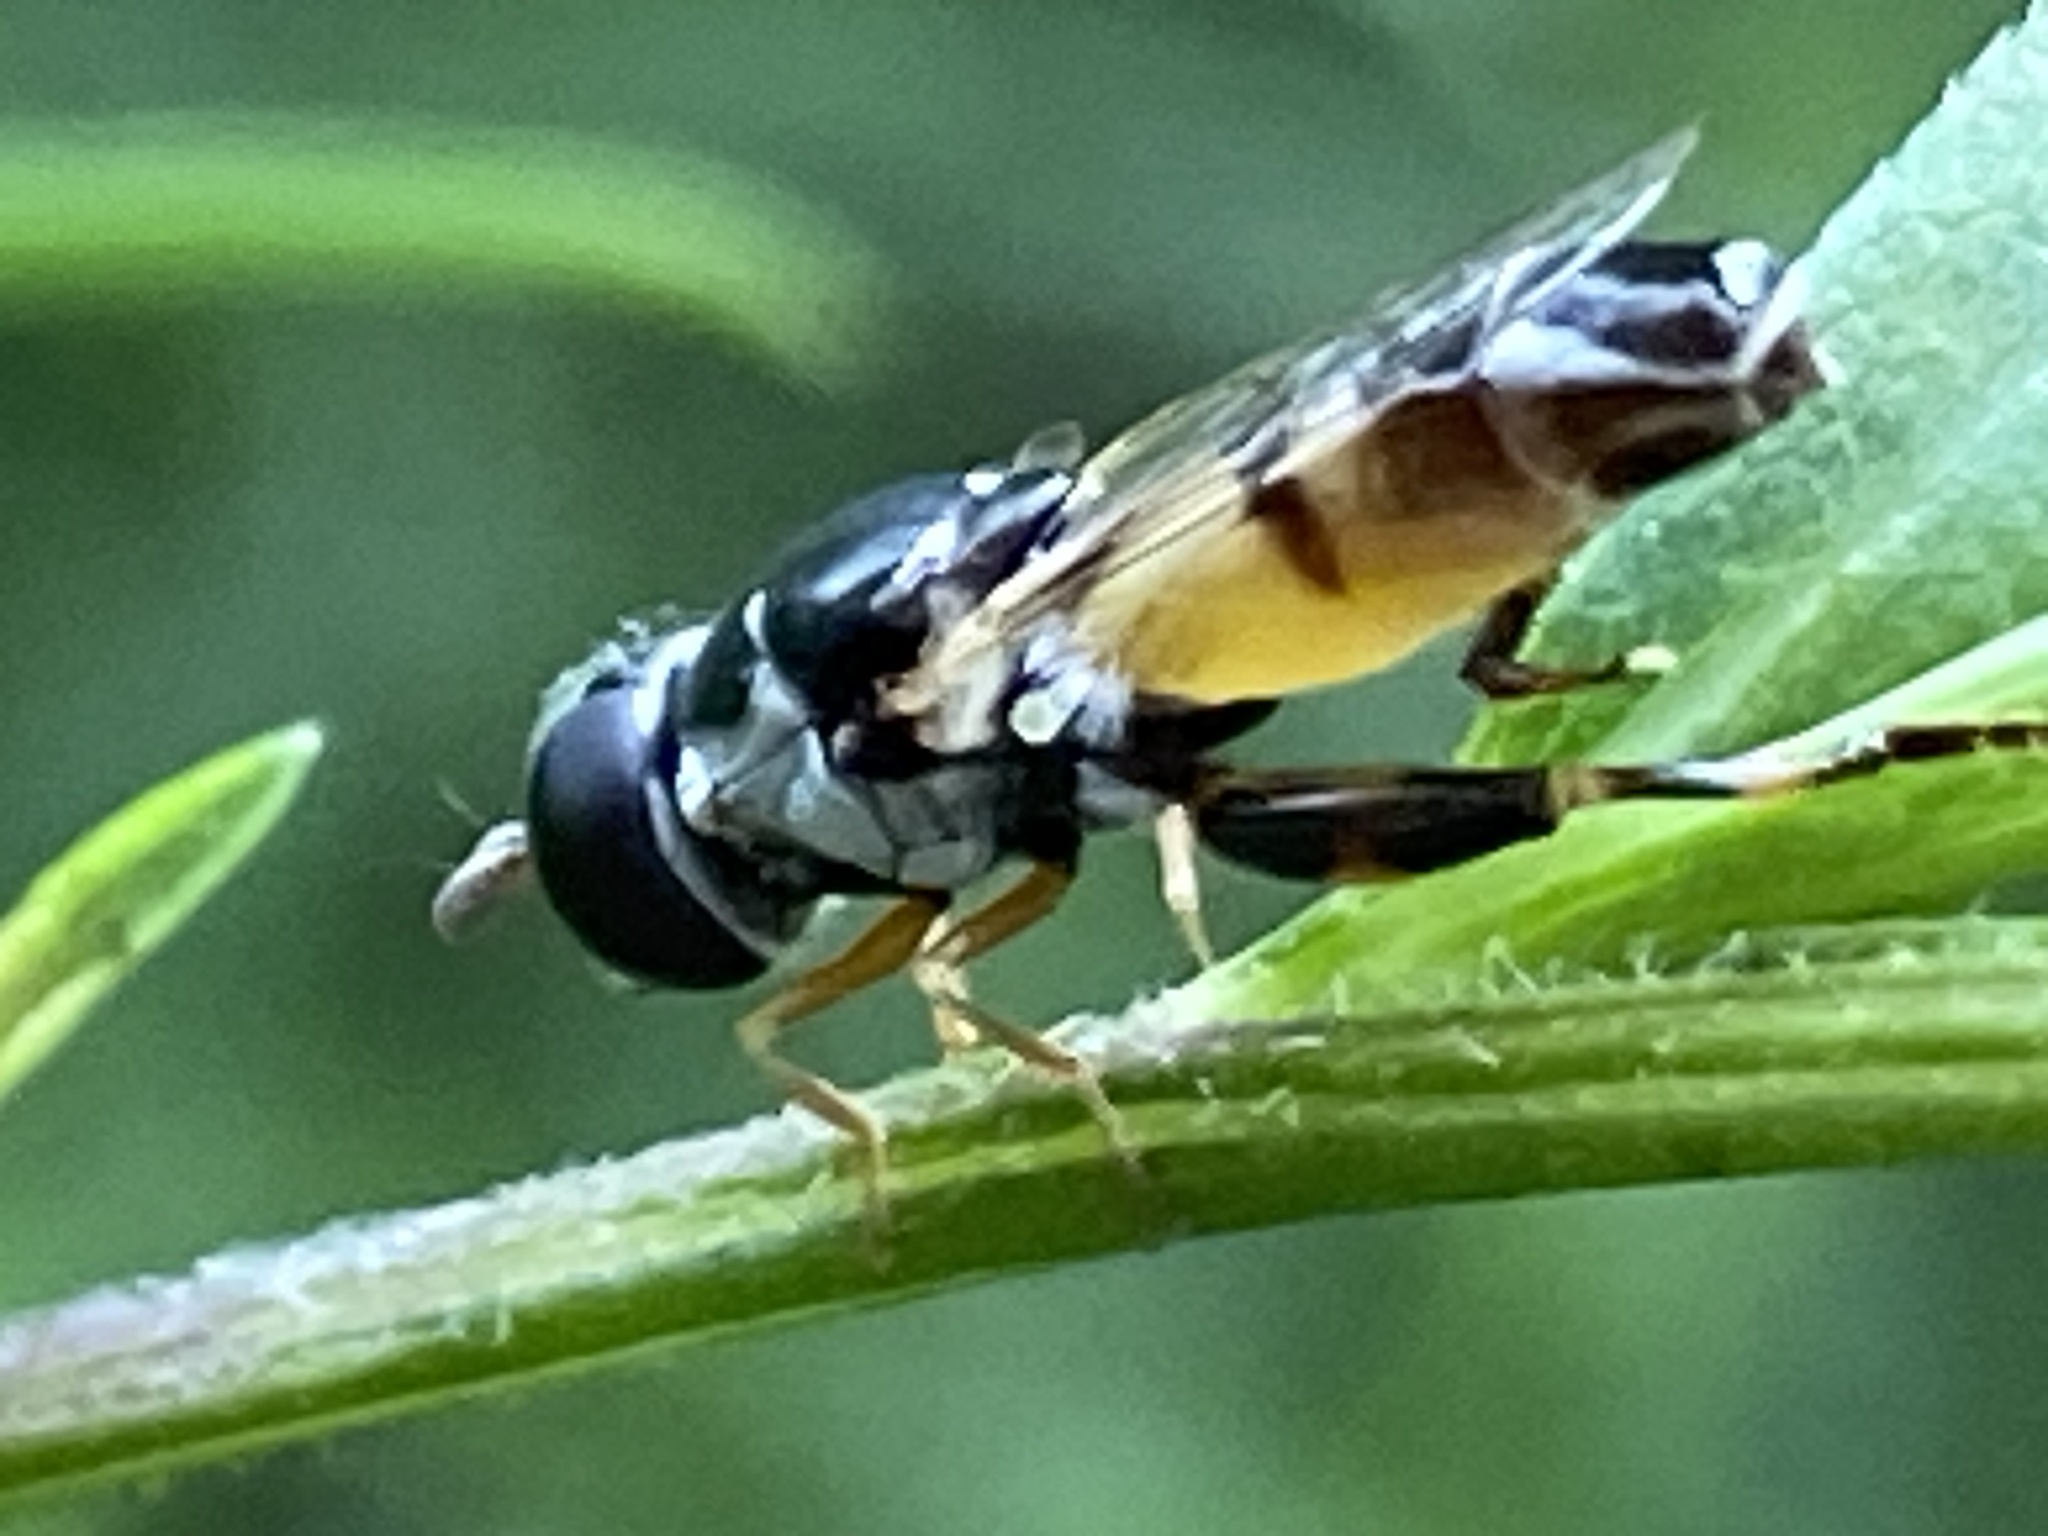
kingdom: Animalia
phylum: Arthropoda
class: Insecta
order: Diptera
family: Syrphidae
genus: Syritta
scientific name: Syritta flaviventris
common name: Syrphid fly
